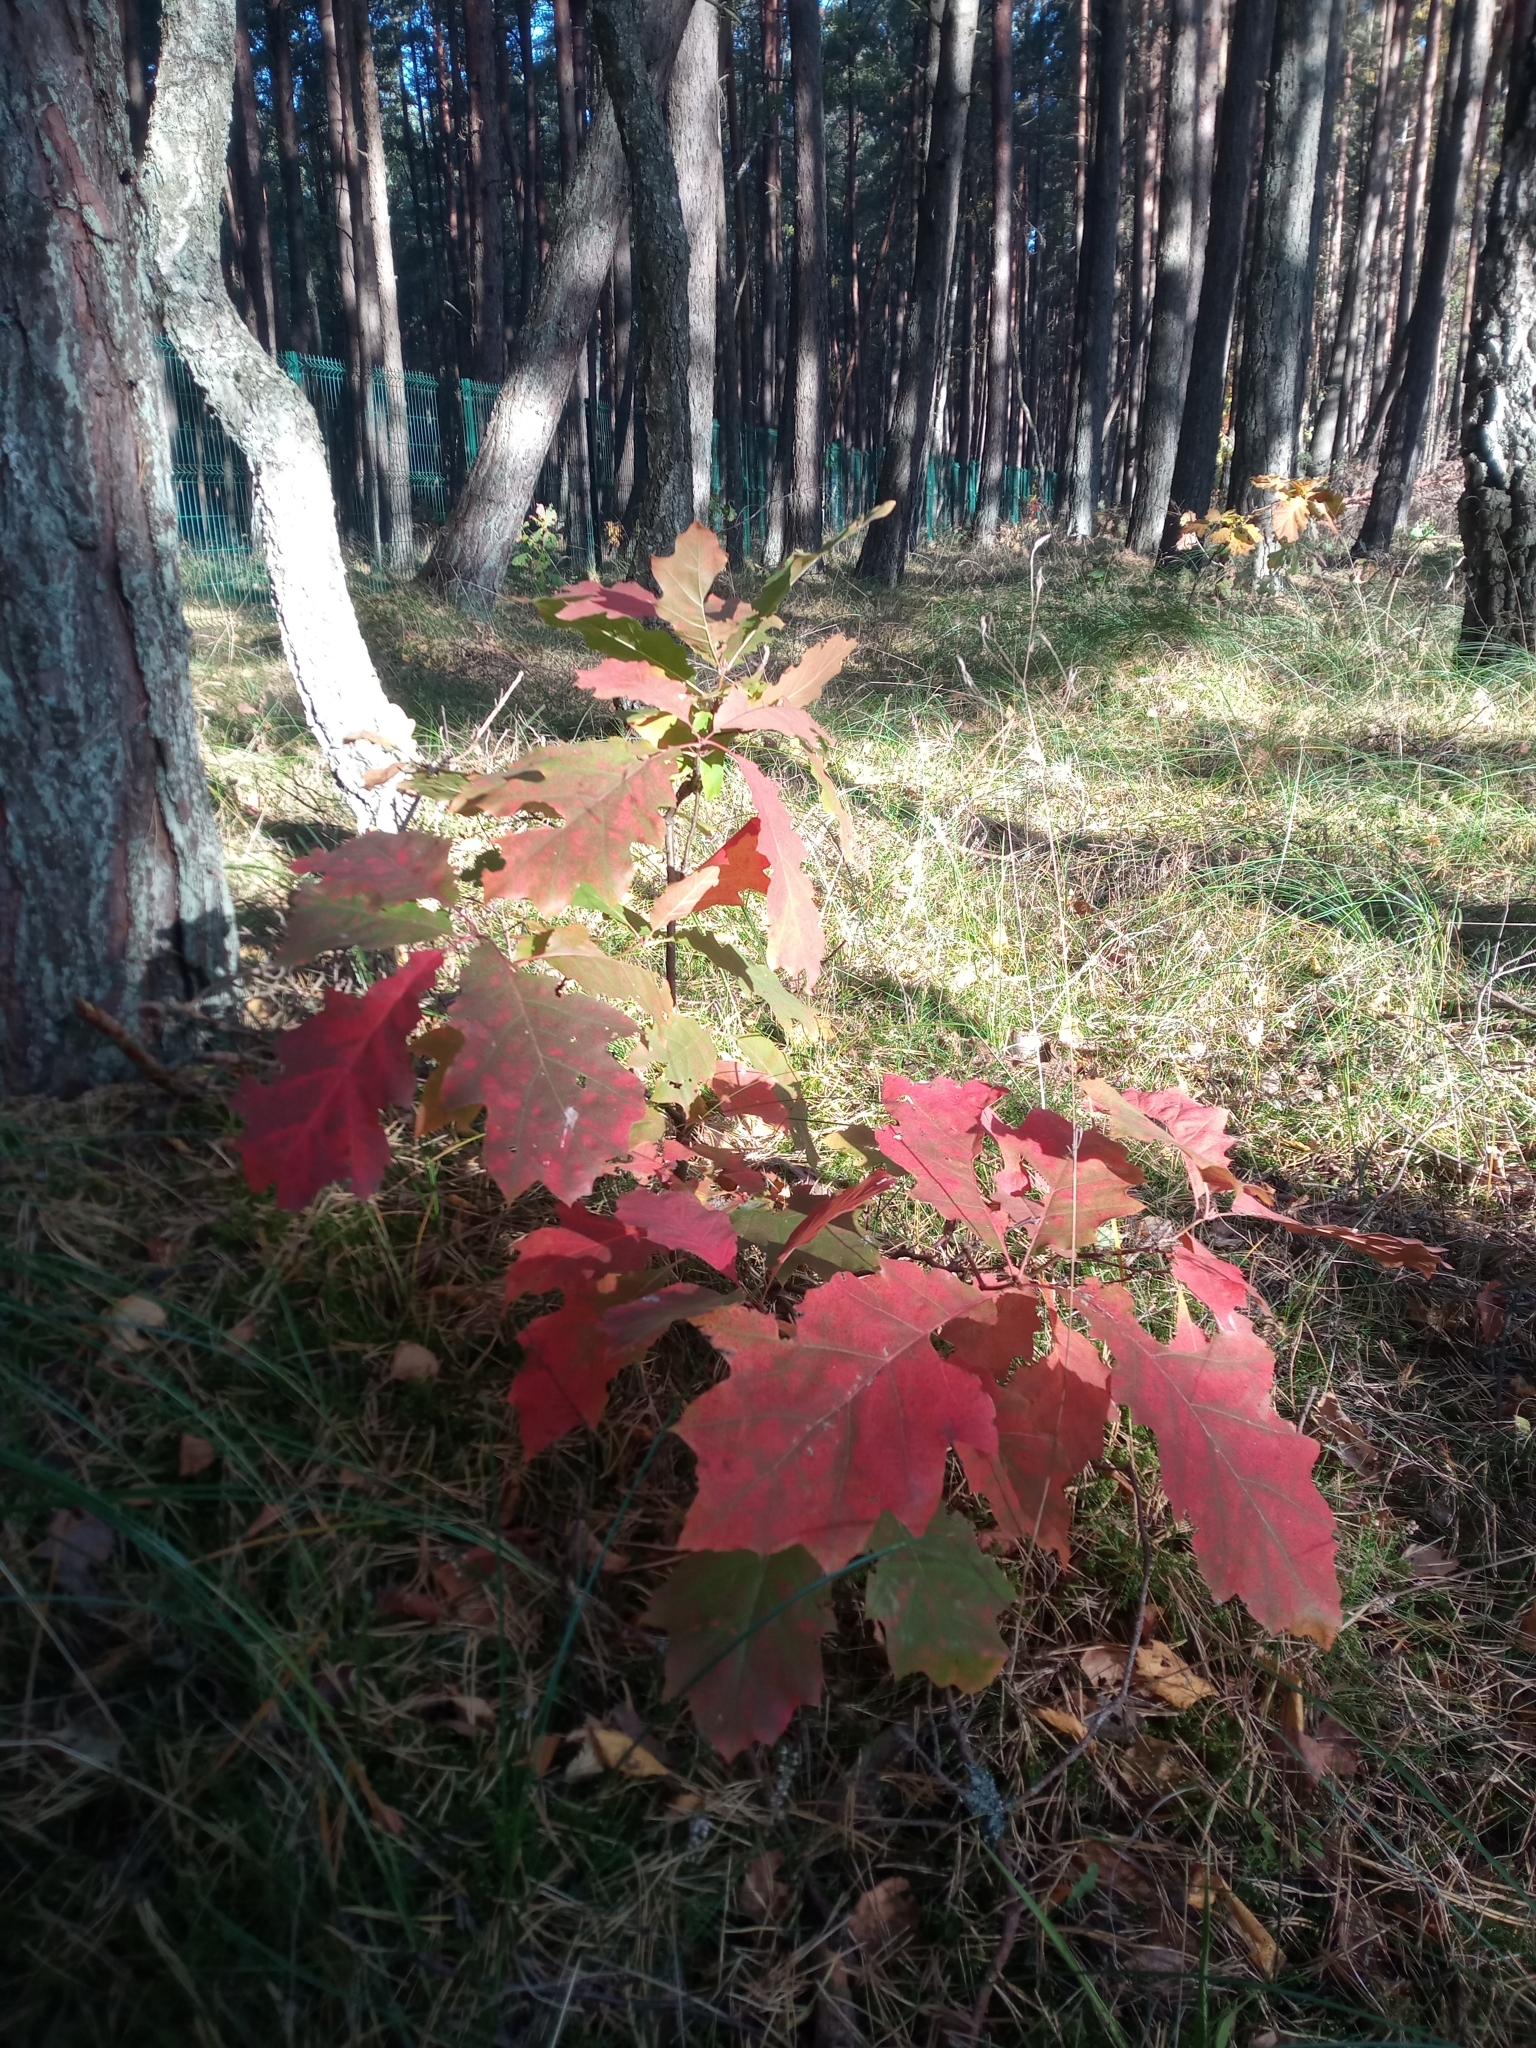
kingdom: Plantae
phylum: Tracheophyta
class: Magnoliopsida
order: Fagales
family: Fagaceae
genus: Quercus
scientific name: Quercus rubra
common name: Red oak
